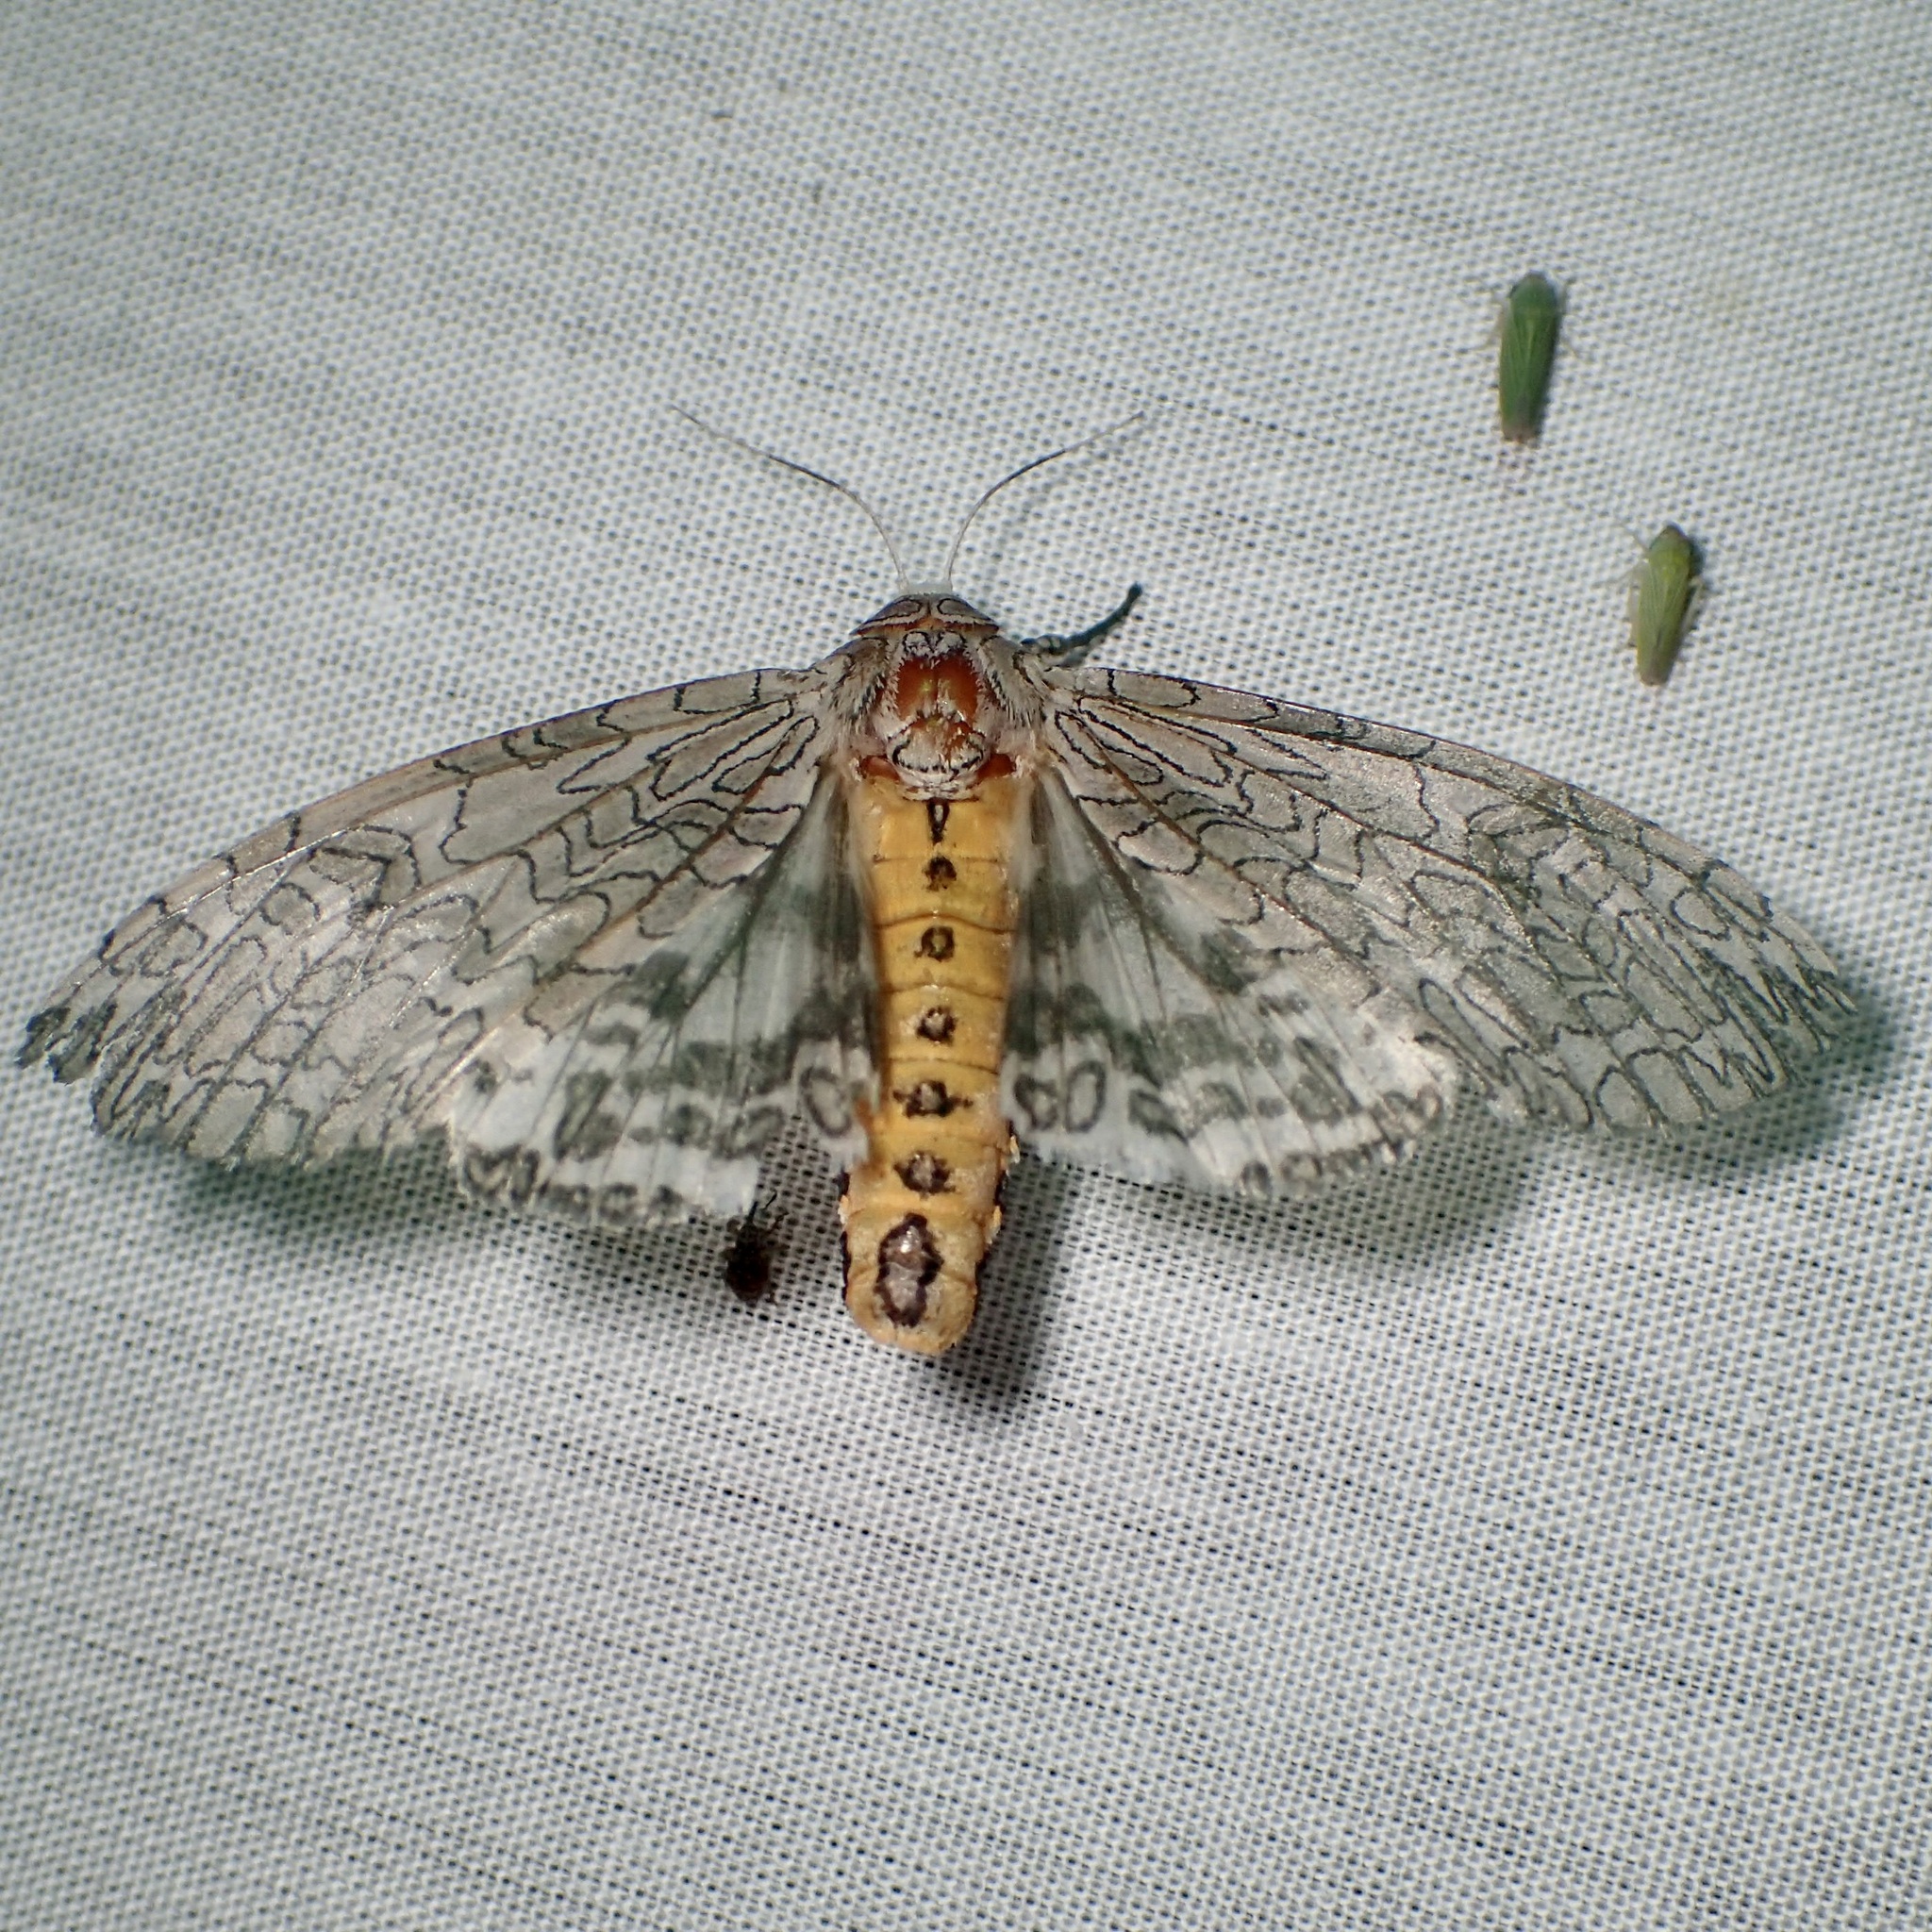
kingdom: Animalia
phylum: Arthropoda
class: Insecta
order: Lepidoptera
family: Erebidae
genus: Hypercompe
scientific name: Hypercompe suffusa
